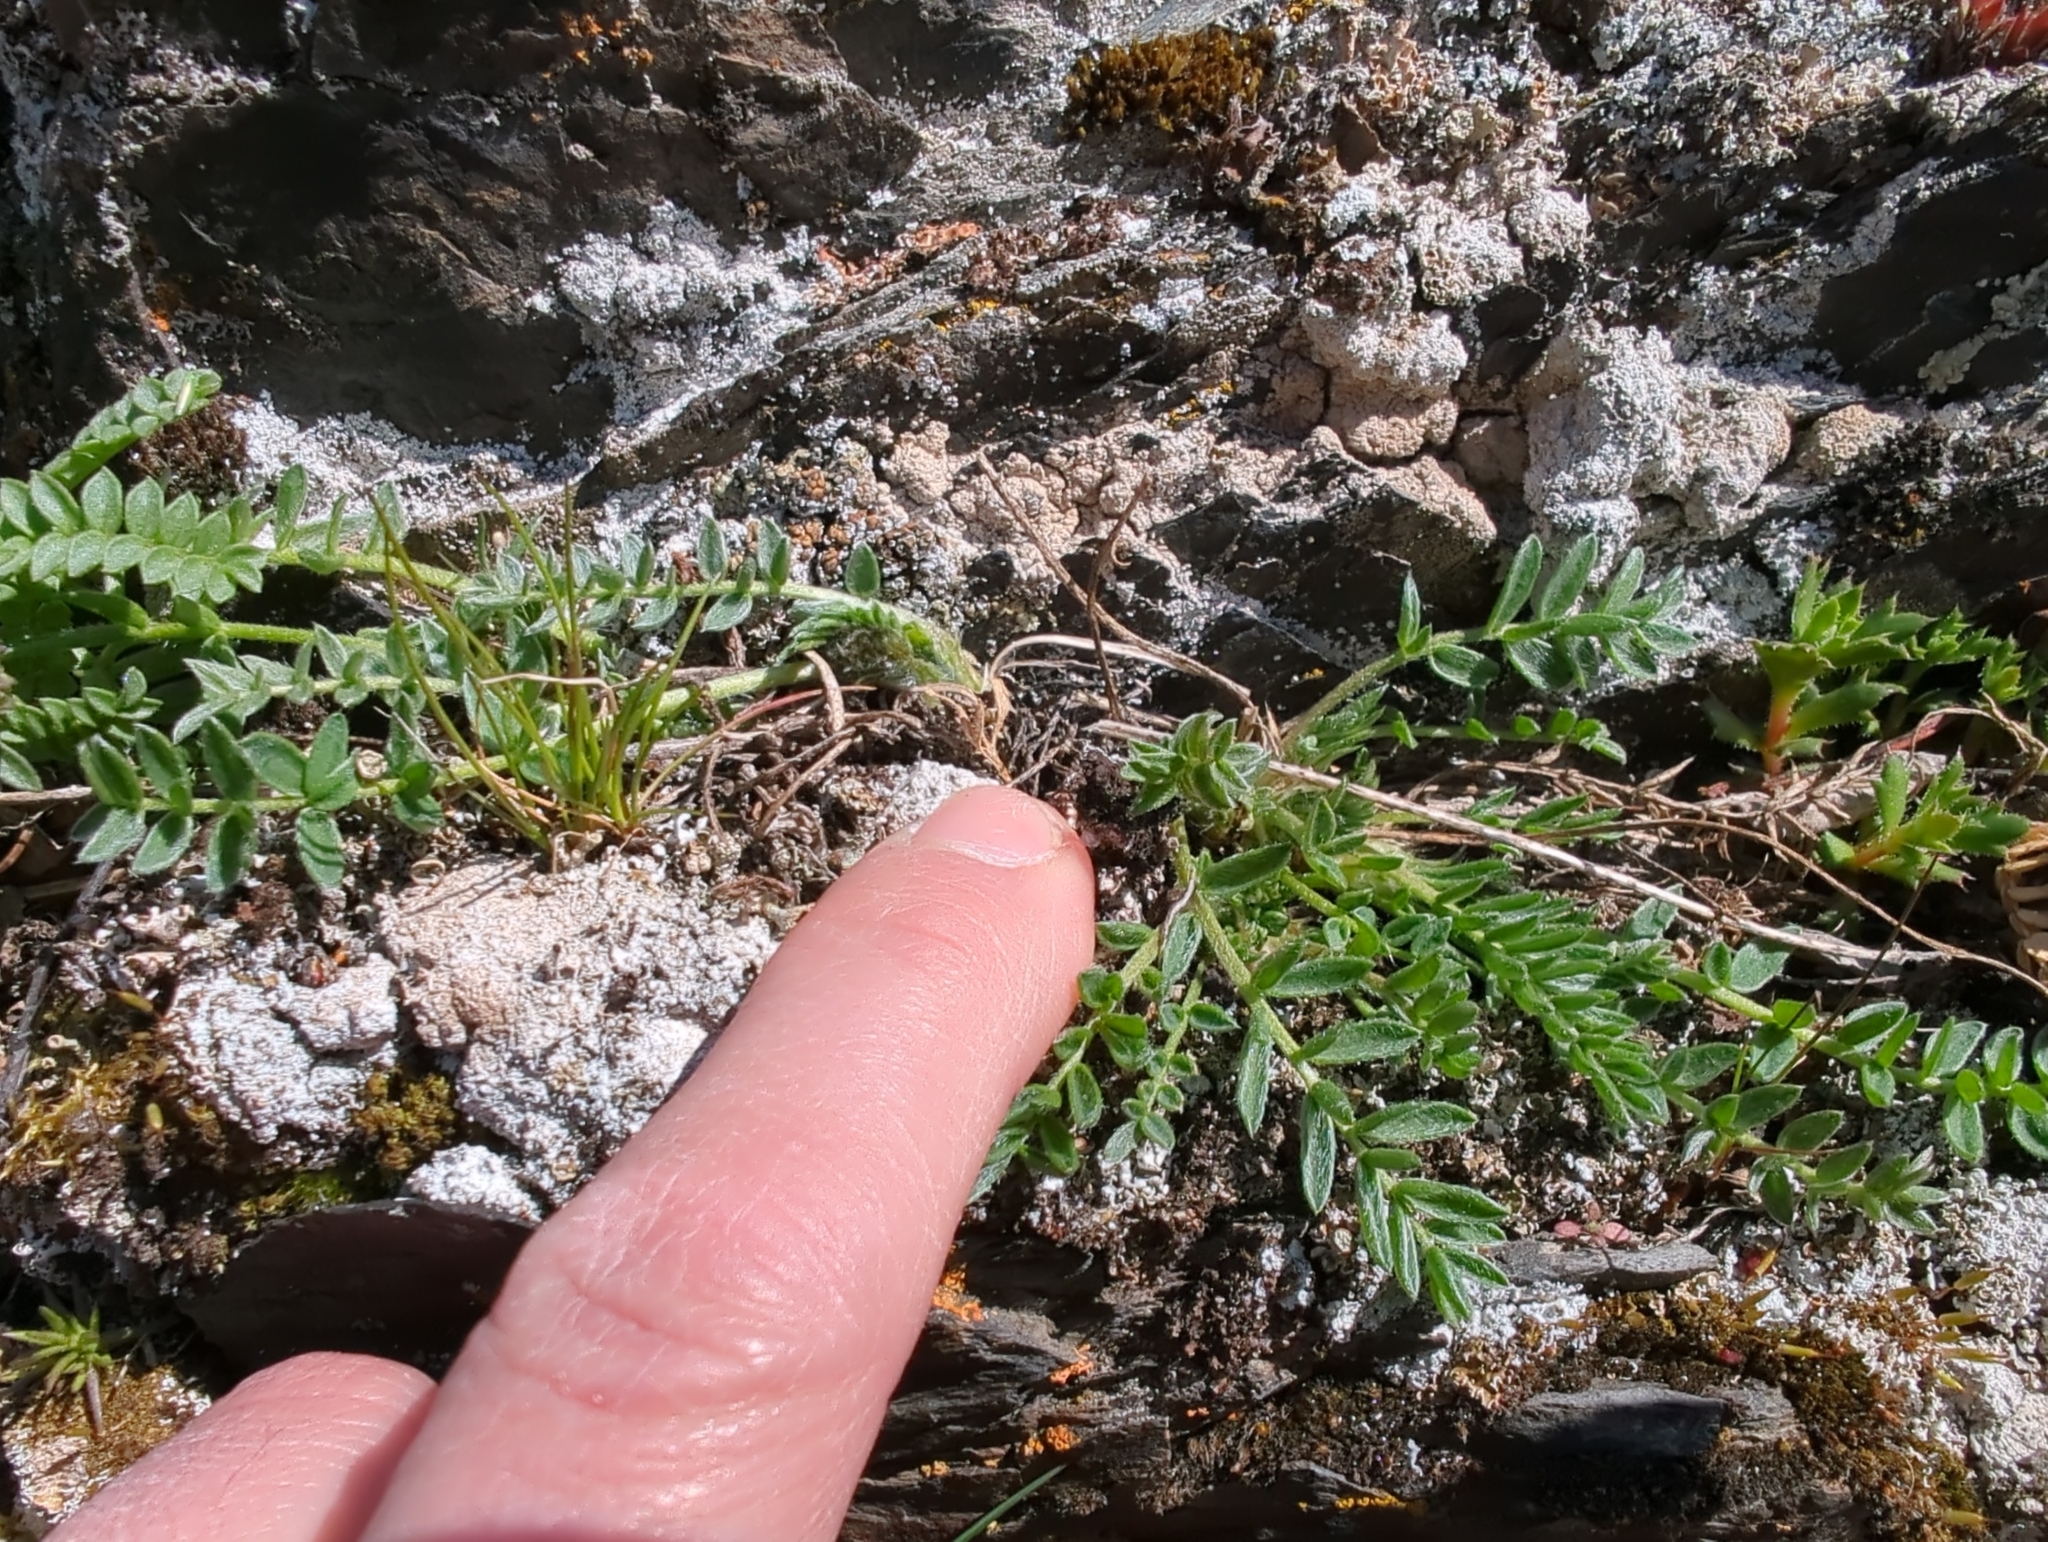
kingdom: Plantae
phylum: Tracheophyta
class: Magnoliopsida
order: Fabales
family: Fabaceae
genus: Oxytropis
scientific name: Oxytropis campestris
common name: Field locoweed
